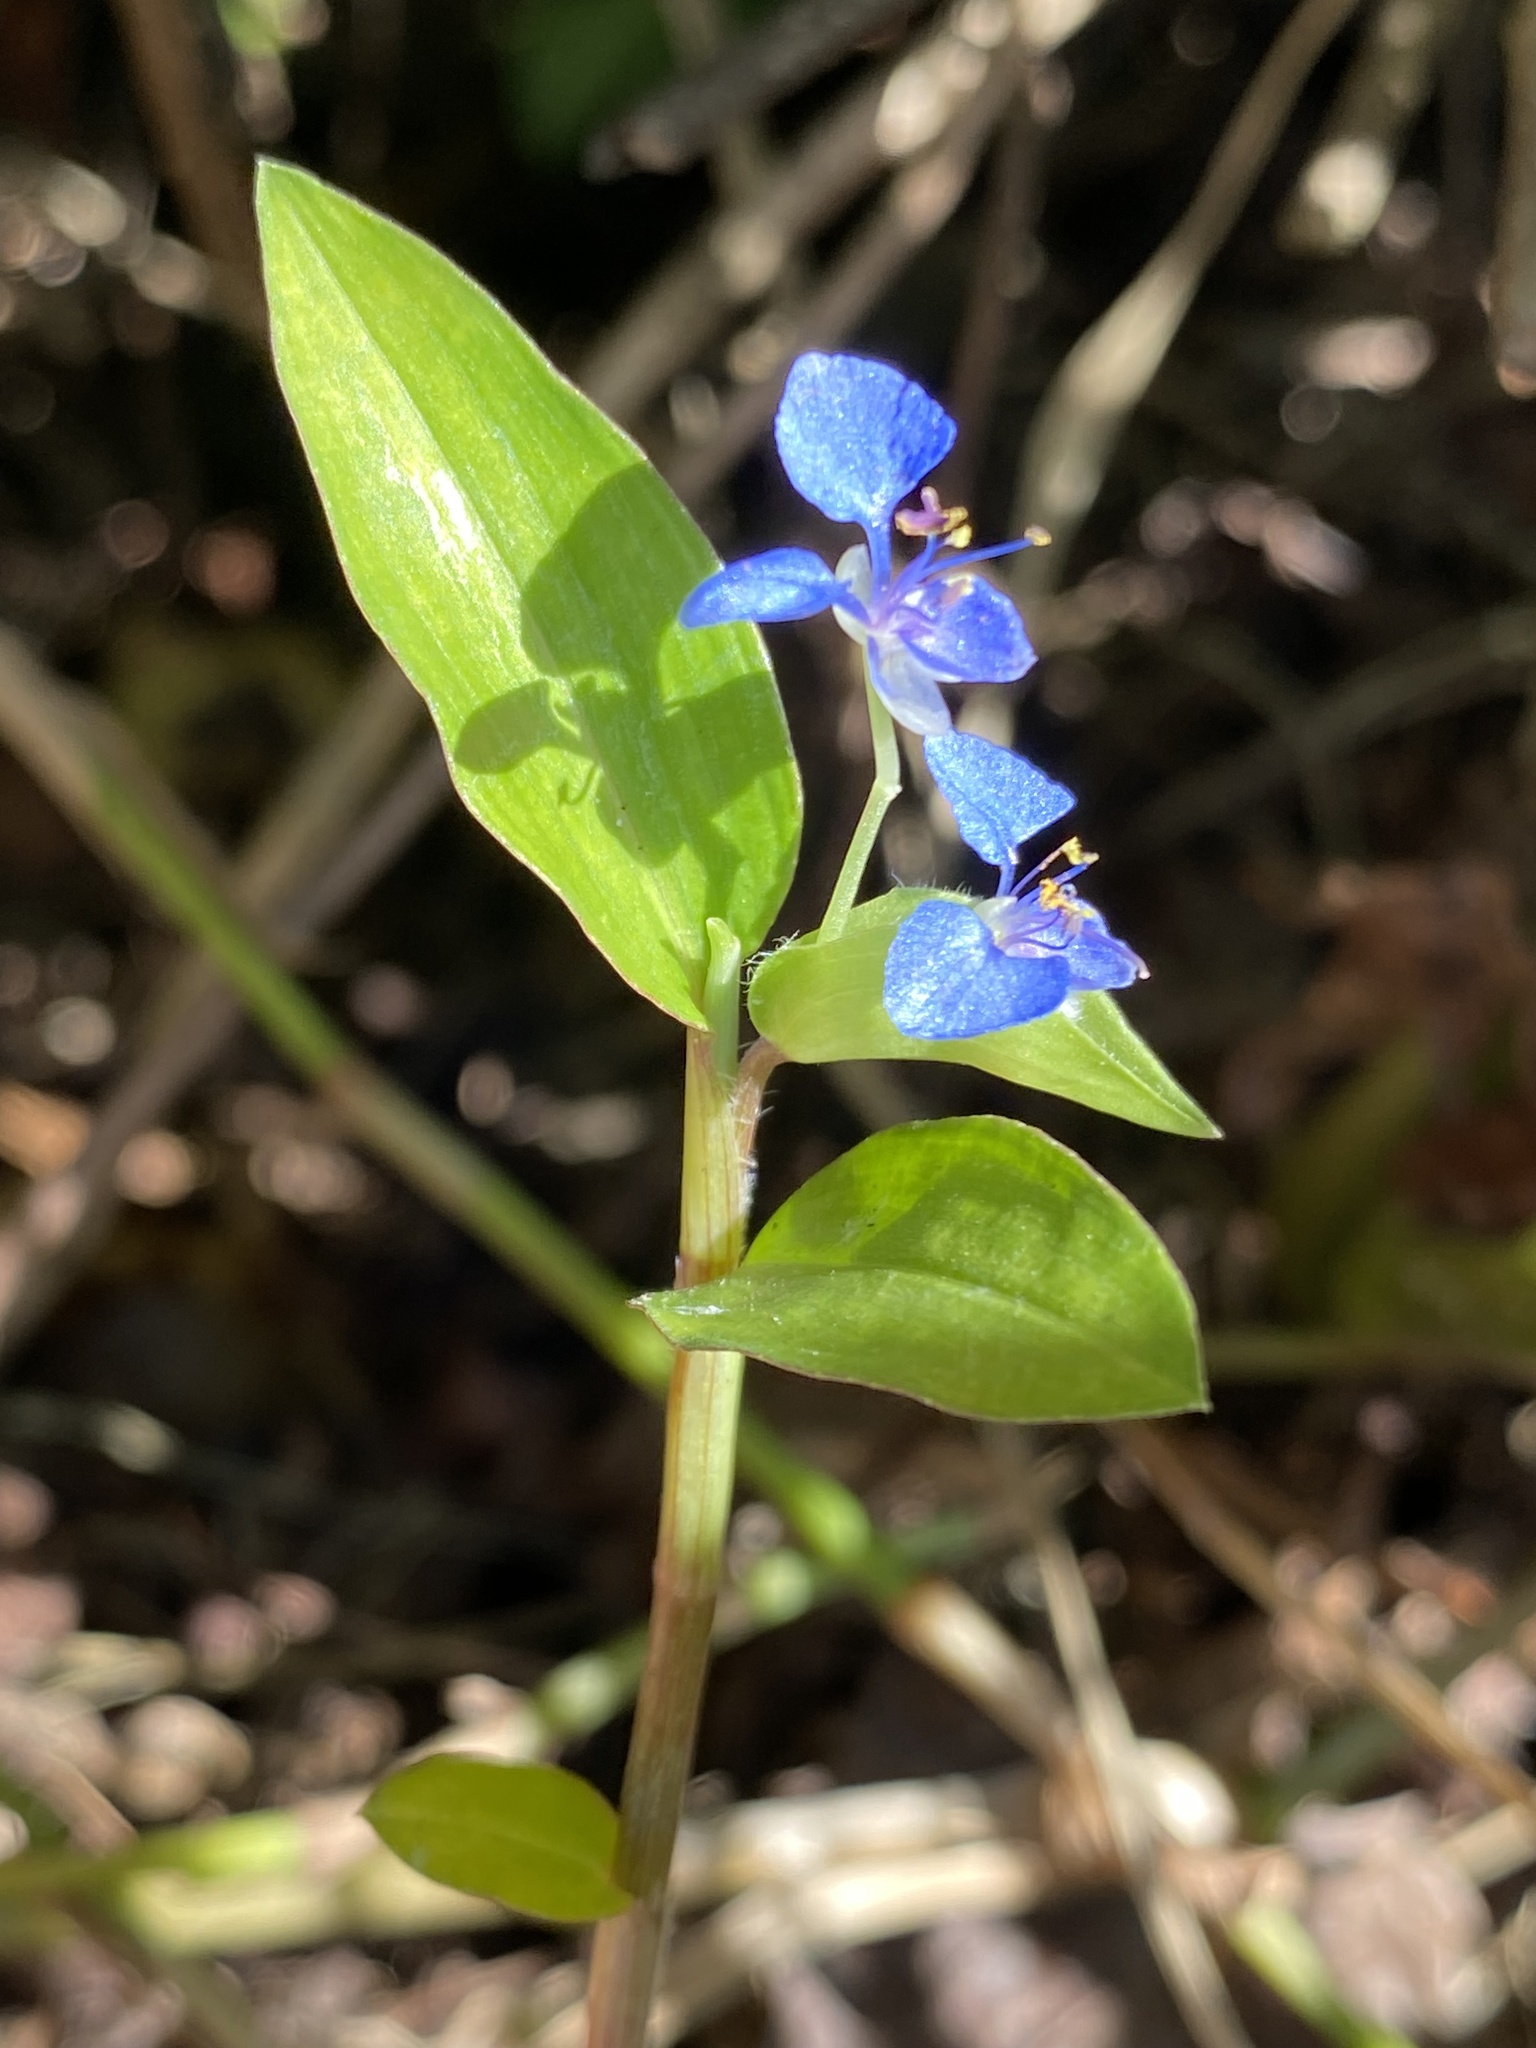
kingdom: Plantae
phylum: Tracheophyta
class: Liliopsida
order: Commelinales
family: Commelinaceae
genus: Commelina
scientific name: Commelina diffusa
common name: Climbing dayflower
